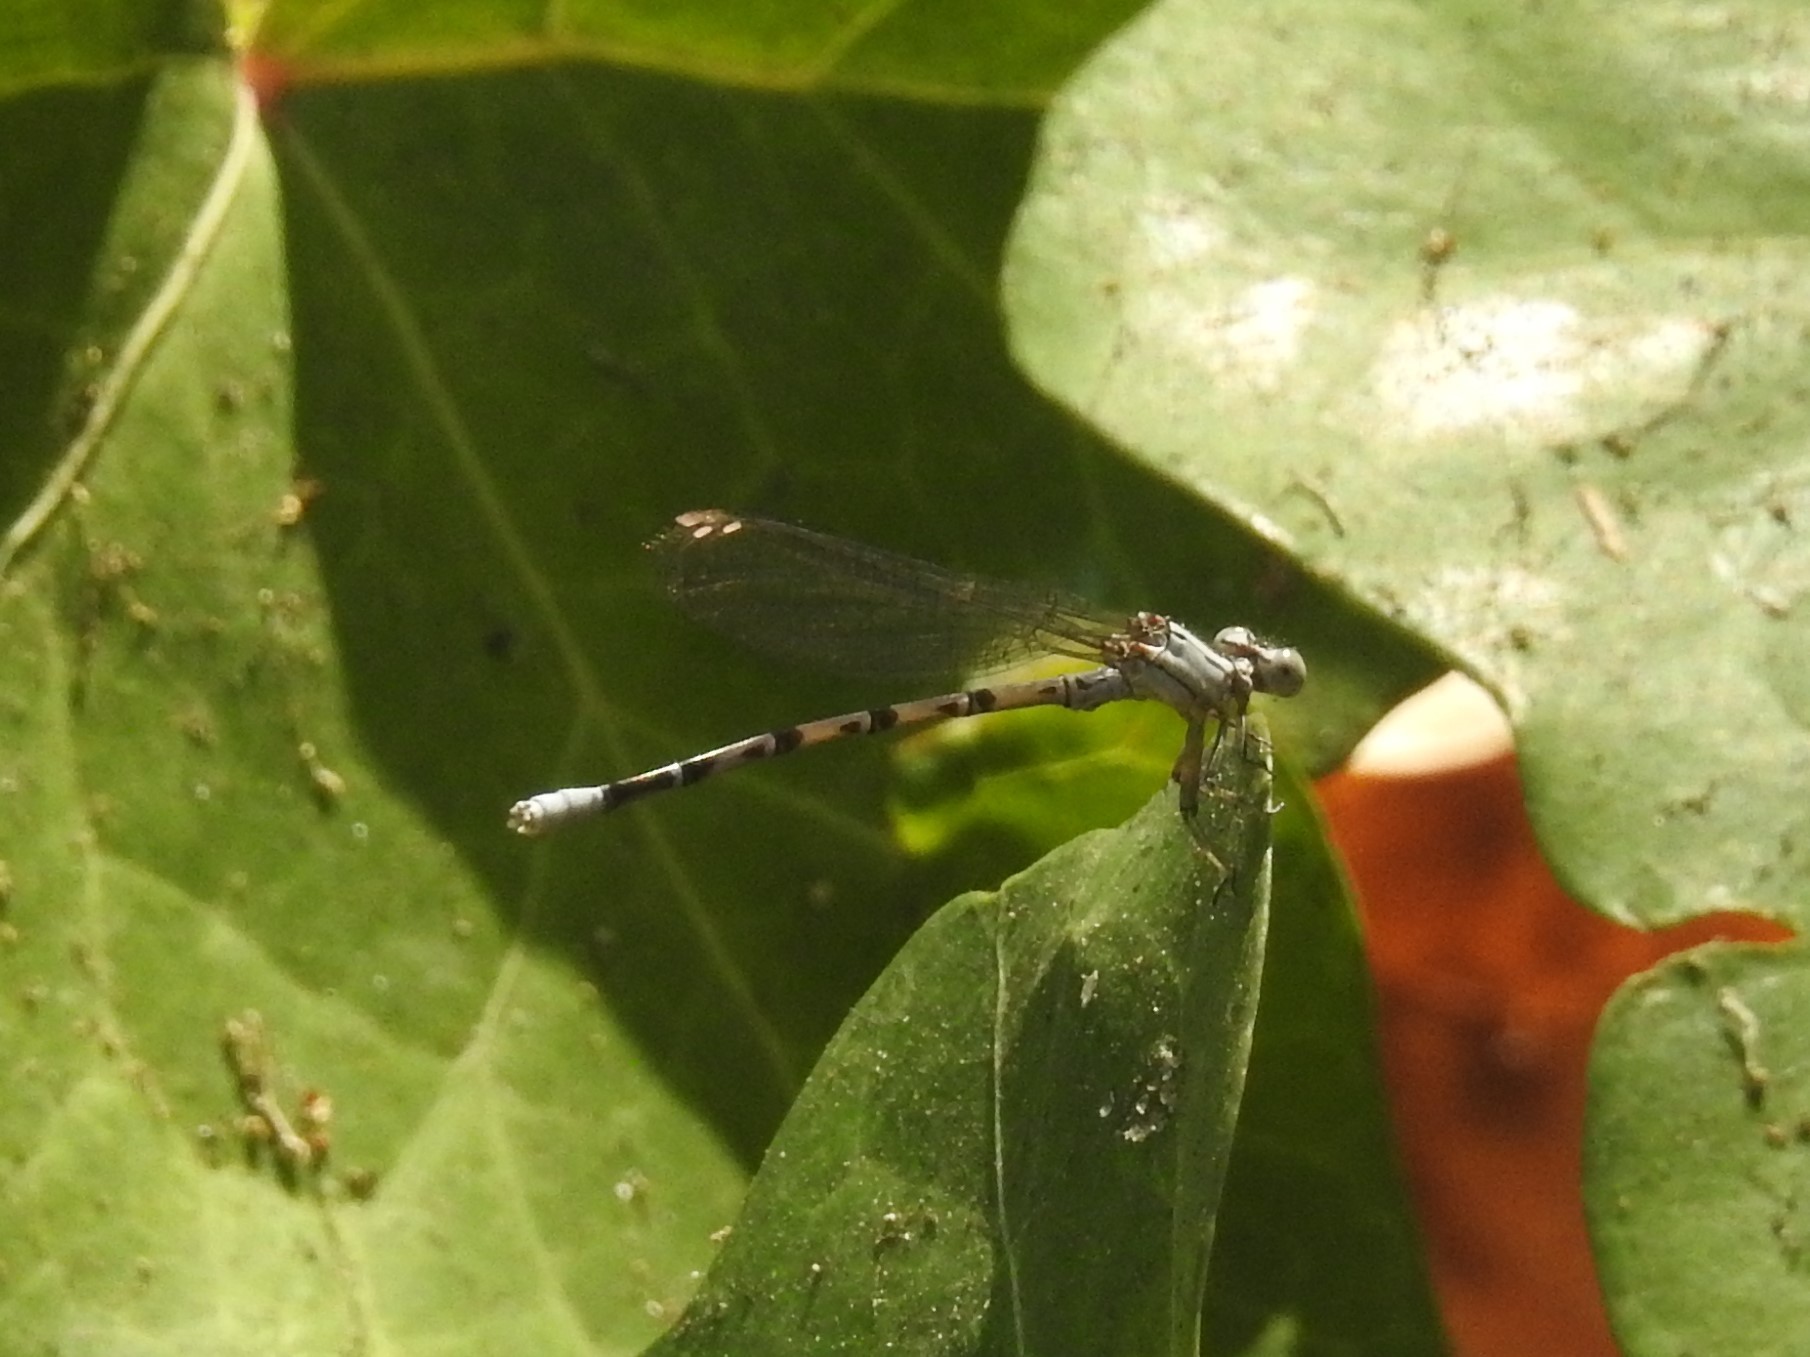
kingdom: Animalia
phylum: Arthropoda
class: Insecta
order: Odonata
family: Coenagrionidae
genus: Argia
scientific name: Argia vivida
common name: Vivid dancer
